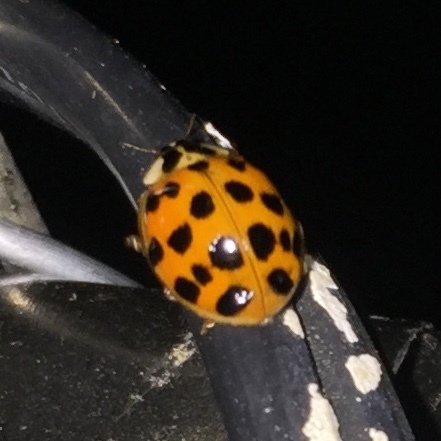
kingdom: Animalia
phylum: Arthropoda
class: Insecta
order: Coleoptera
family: Coccinellidae
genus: Harmonia
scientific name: Harmonia axyridis
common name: Harlequin ladybird
